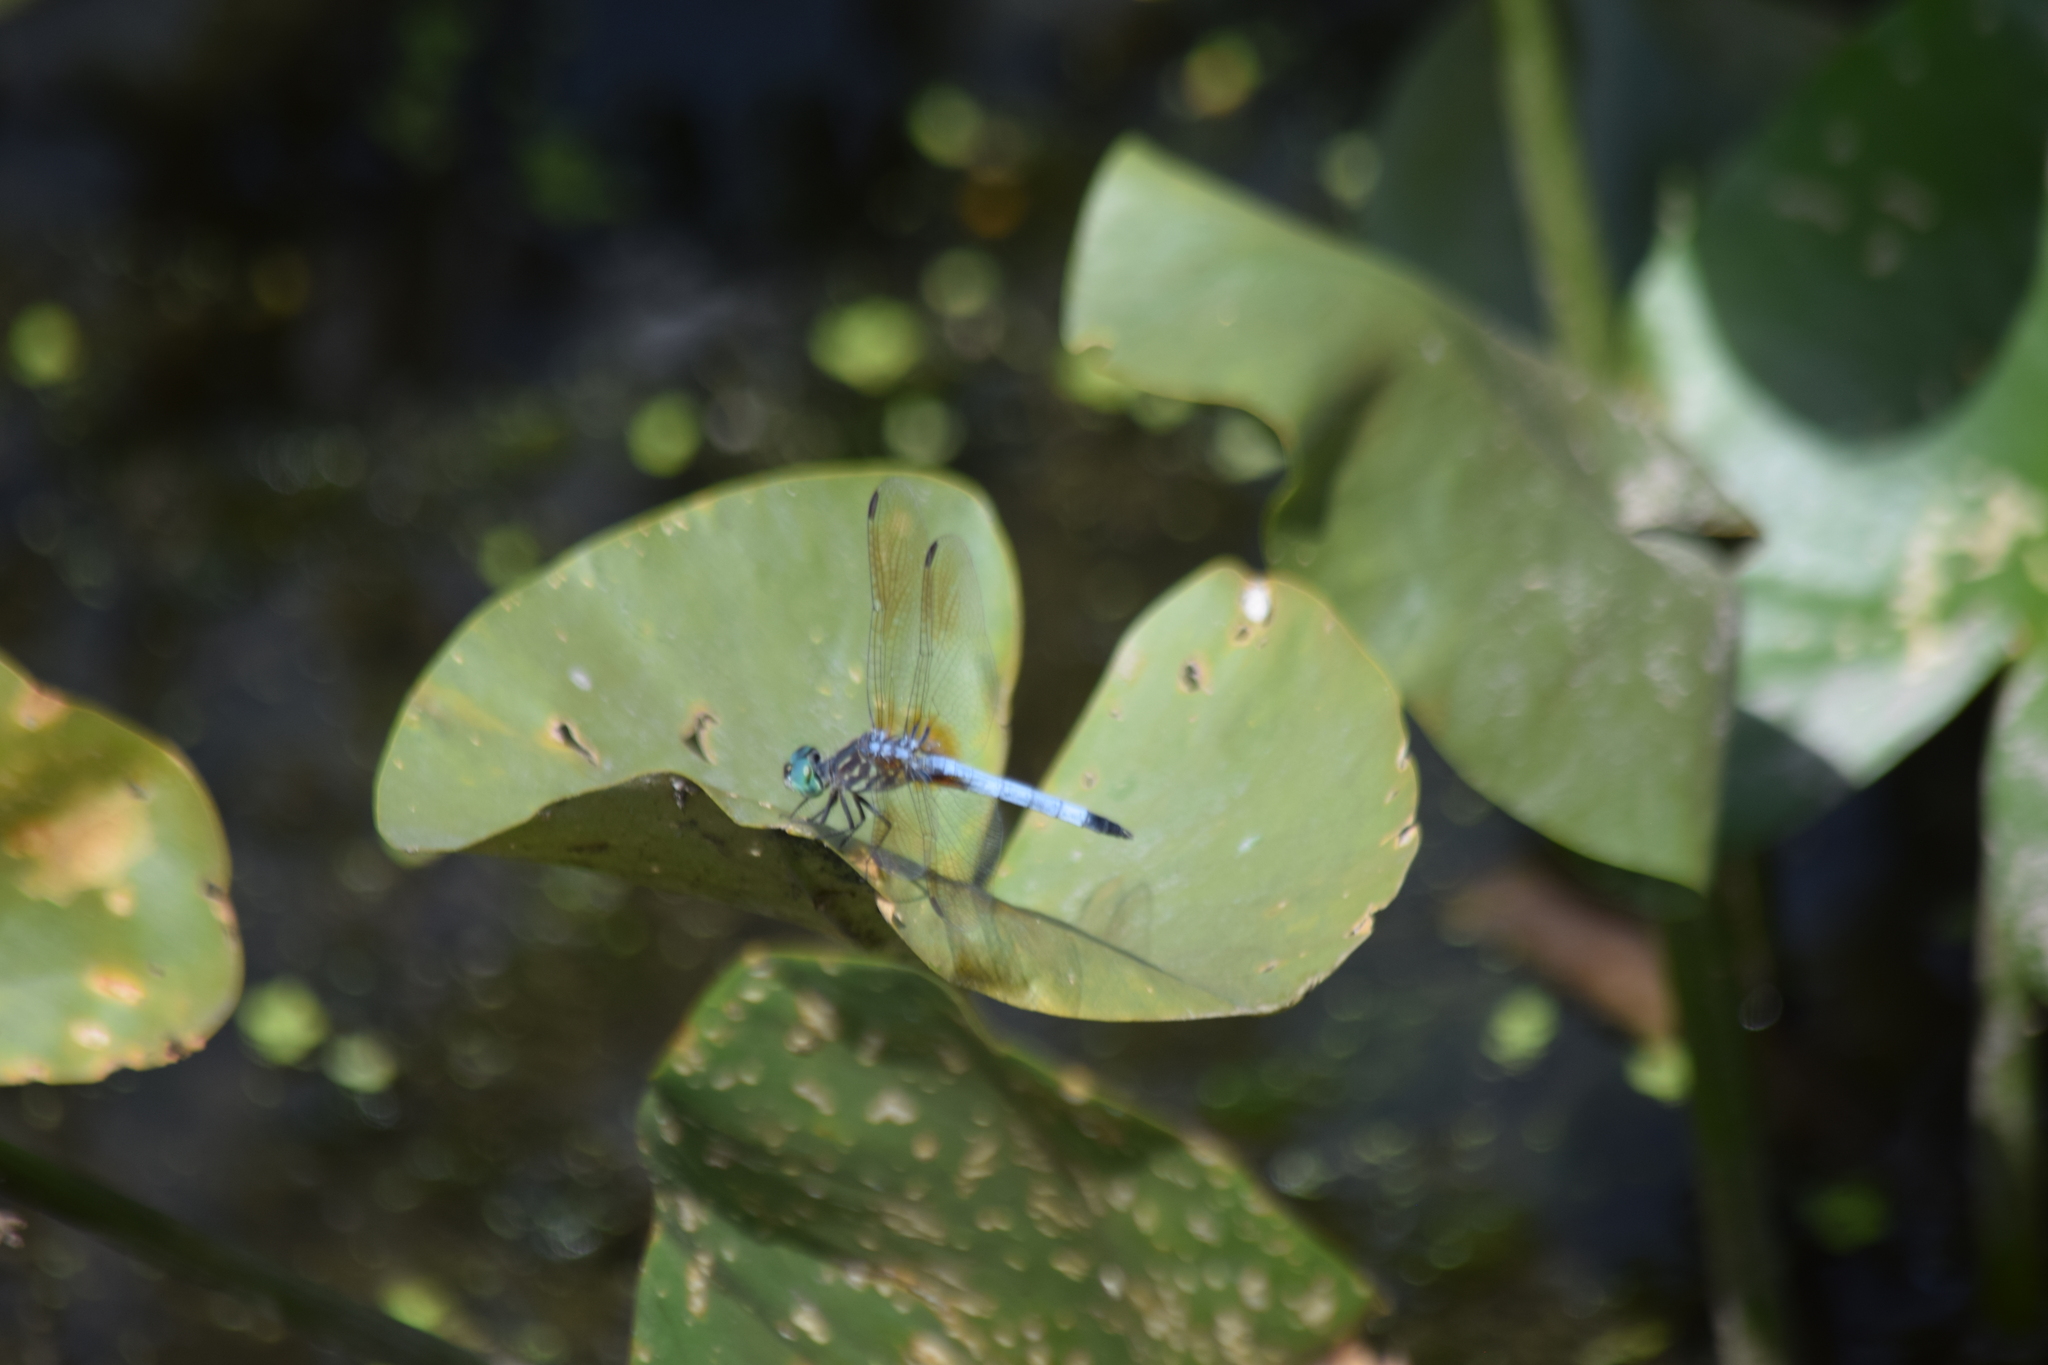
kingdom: Animalia
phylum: Arthropoda
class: Insecta
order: Odonata
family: Libellulidae
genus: Pachydiplax
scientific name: Pachydiplax longipennis
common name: Blue dasher
